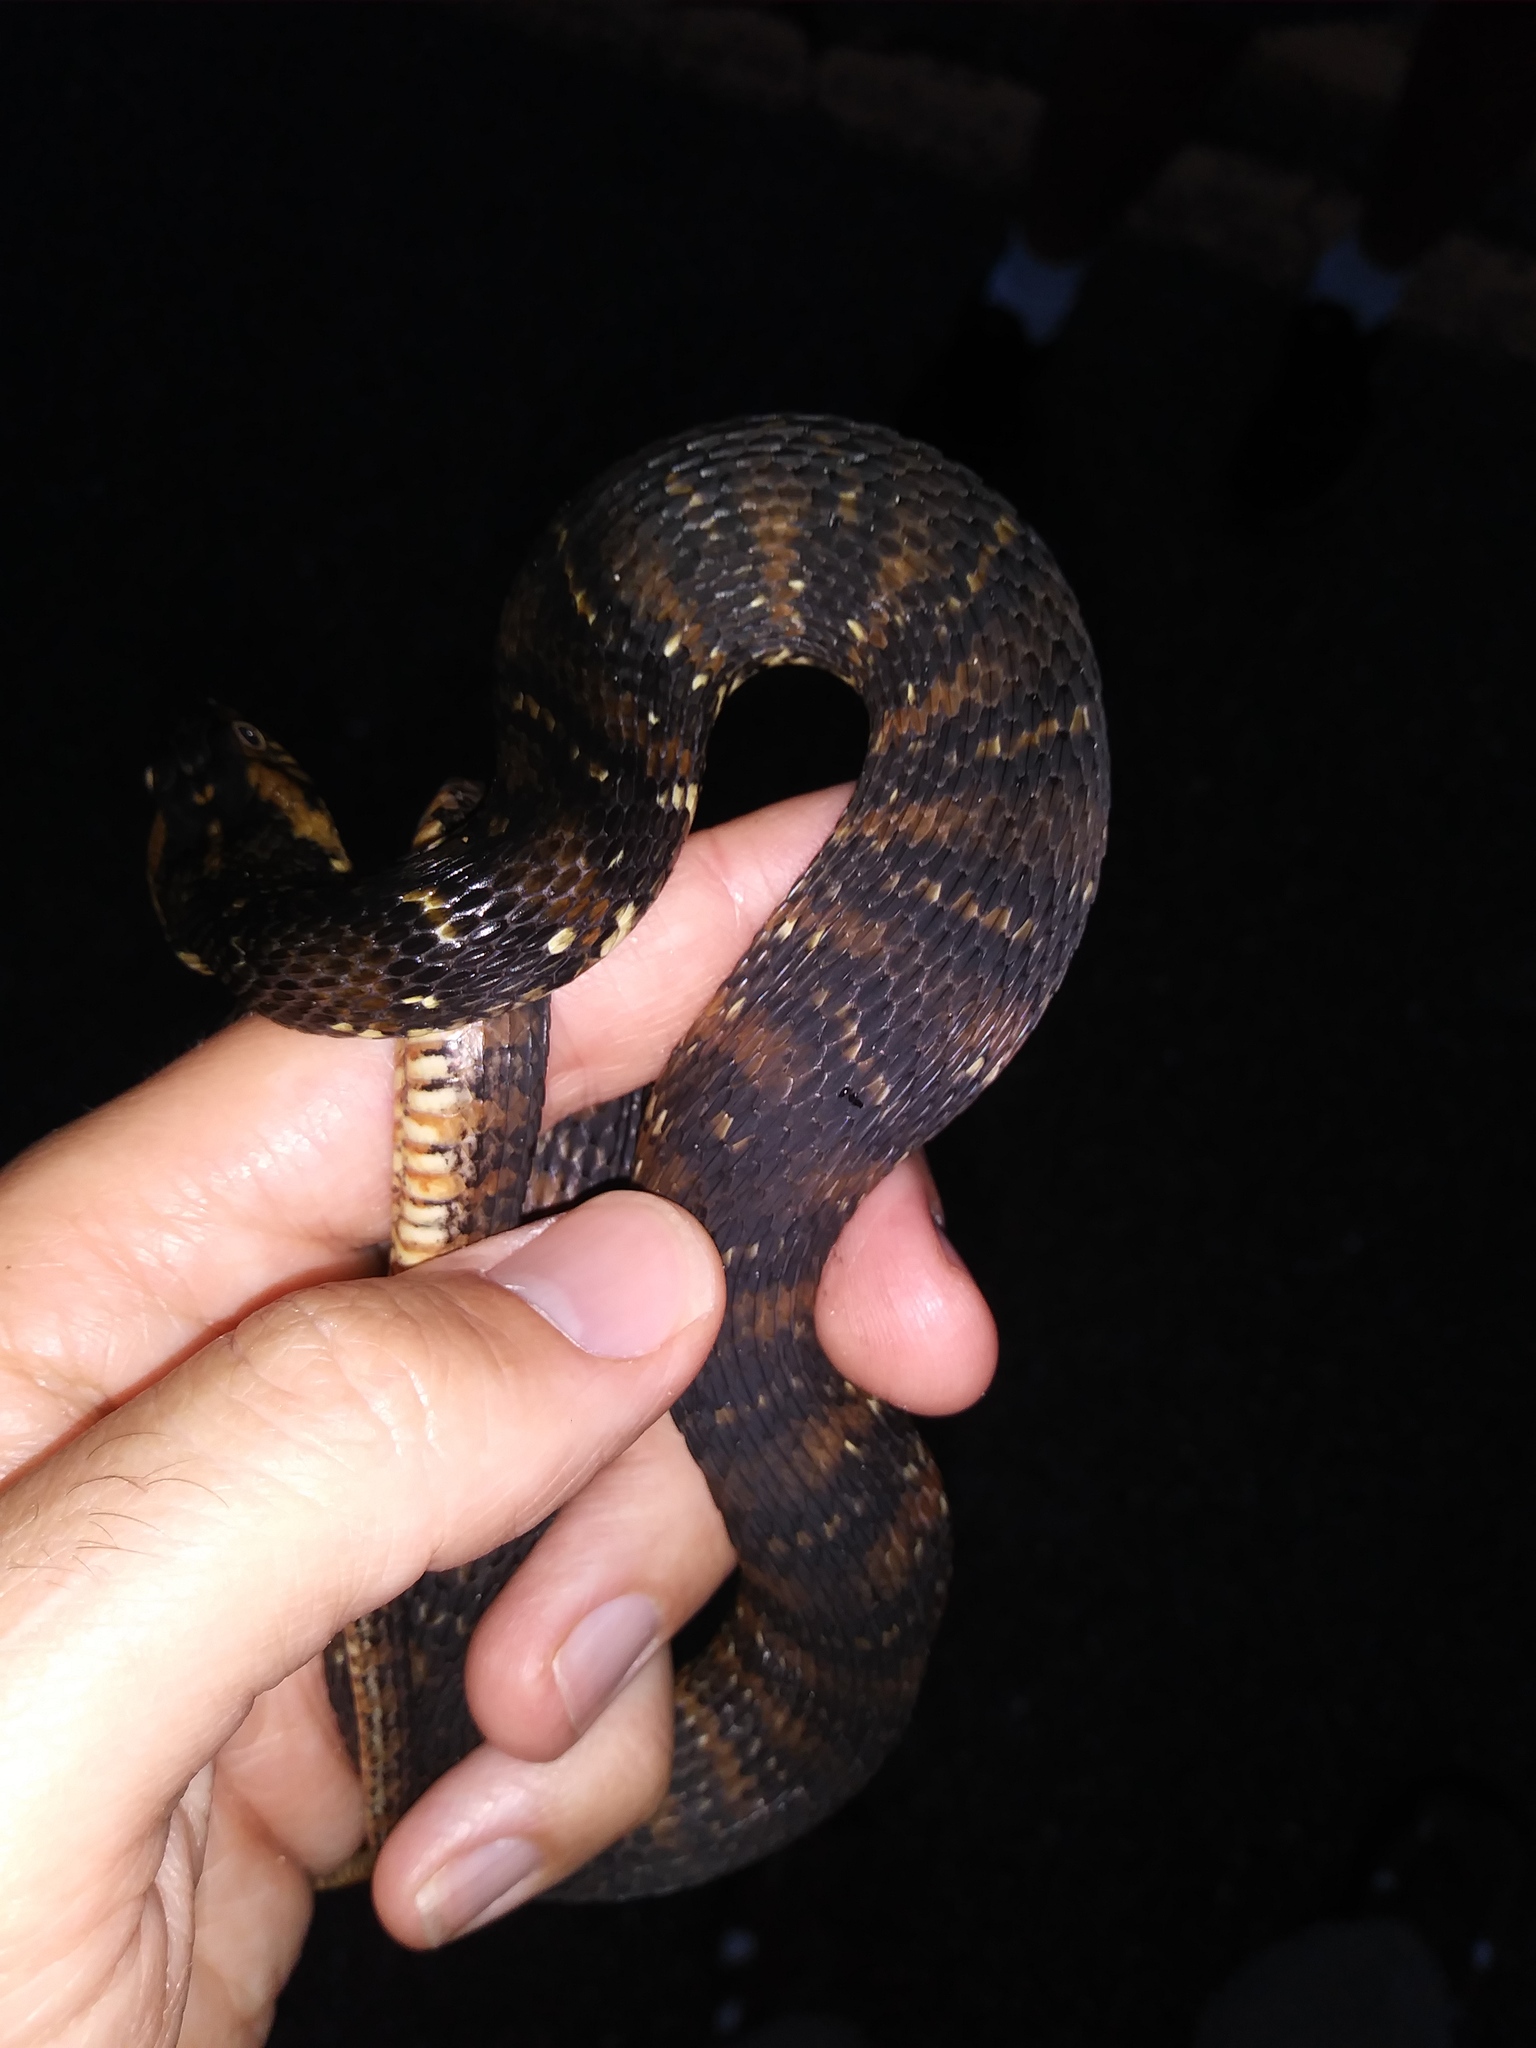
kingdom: Animalia
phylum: Chordata
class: Squamata
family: Colubridae
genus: Nerodia
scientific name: Nerodia fasciata
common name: Southern water snake
